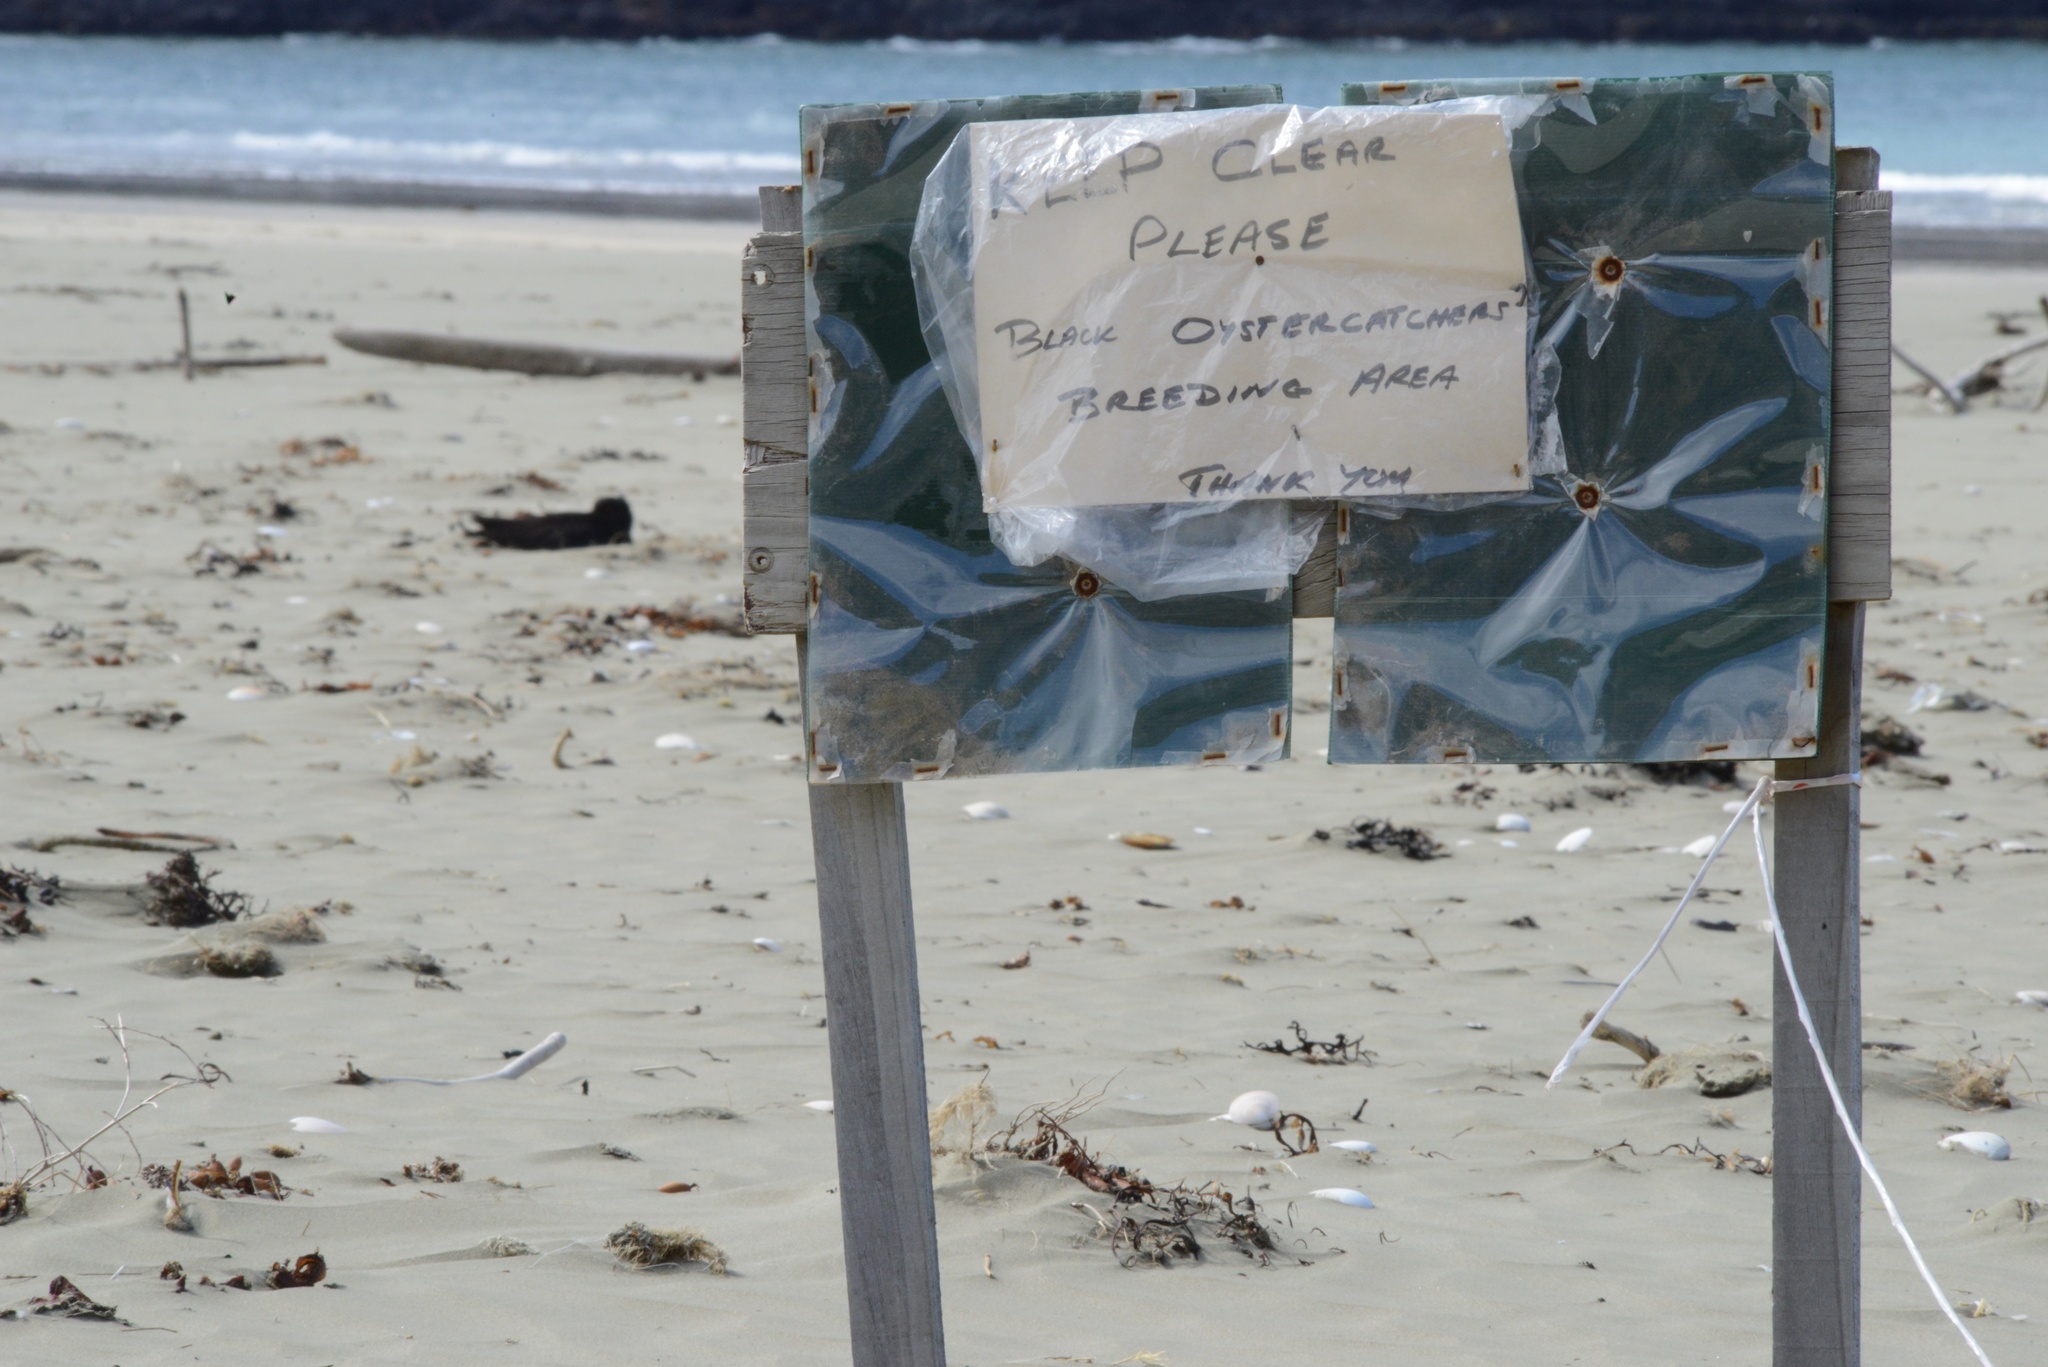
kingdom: Animalia
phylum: Chordata
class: Aves
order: Charadriiformes
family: Haematopodidae
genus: Haematopus
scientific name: Haematopus unicolor
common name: Variable oystercatcher
